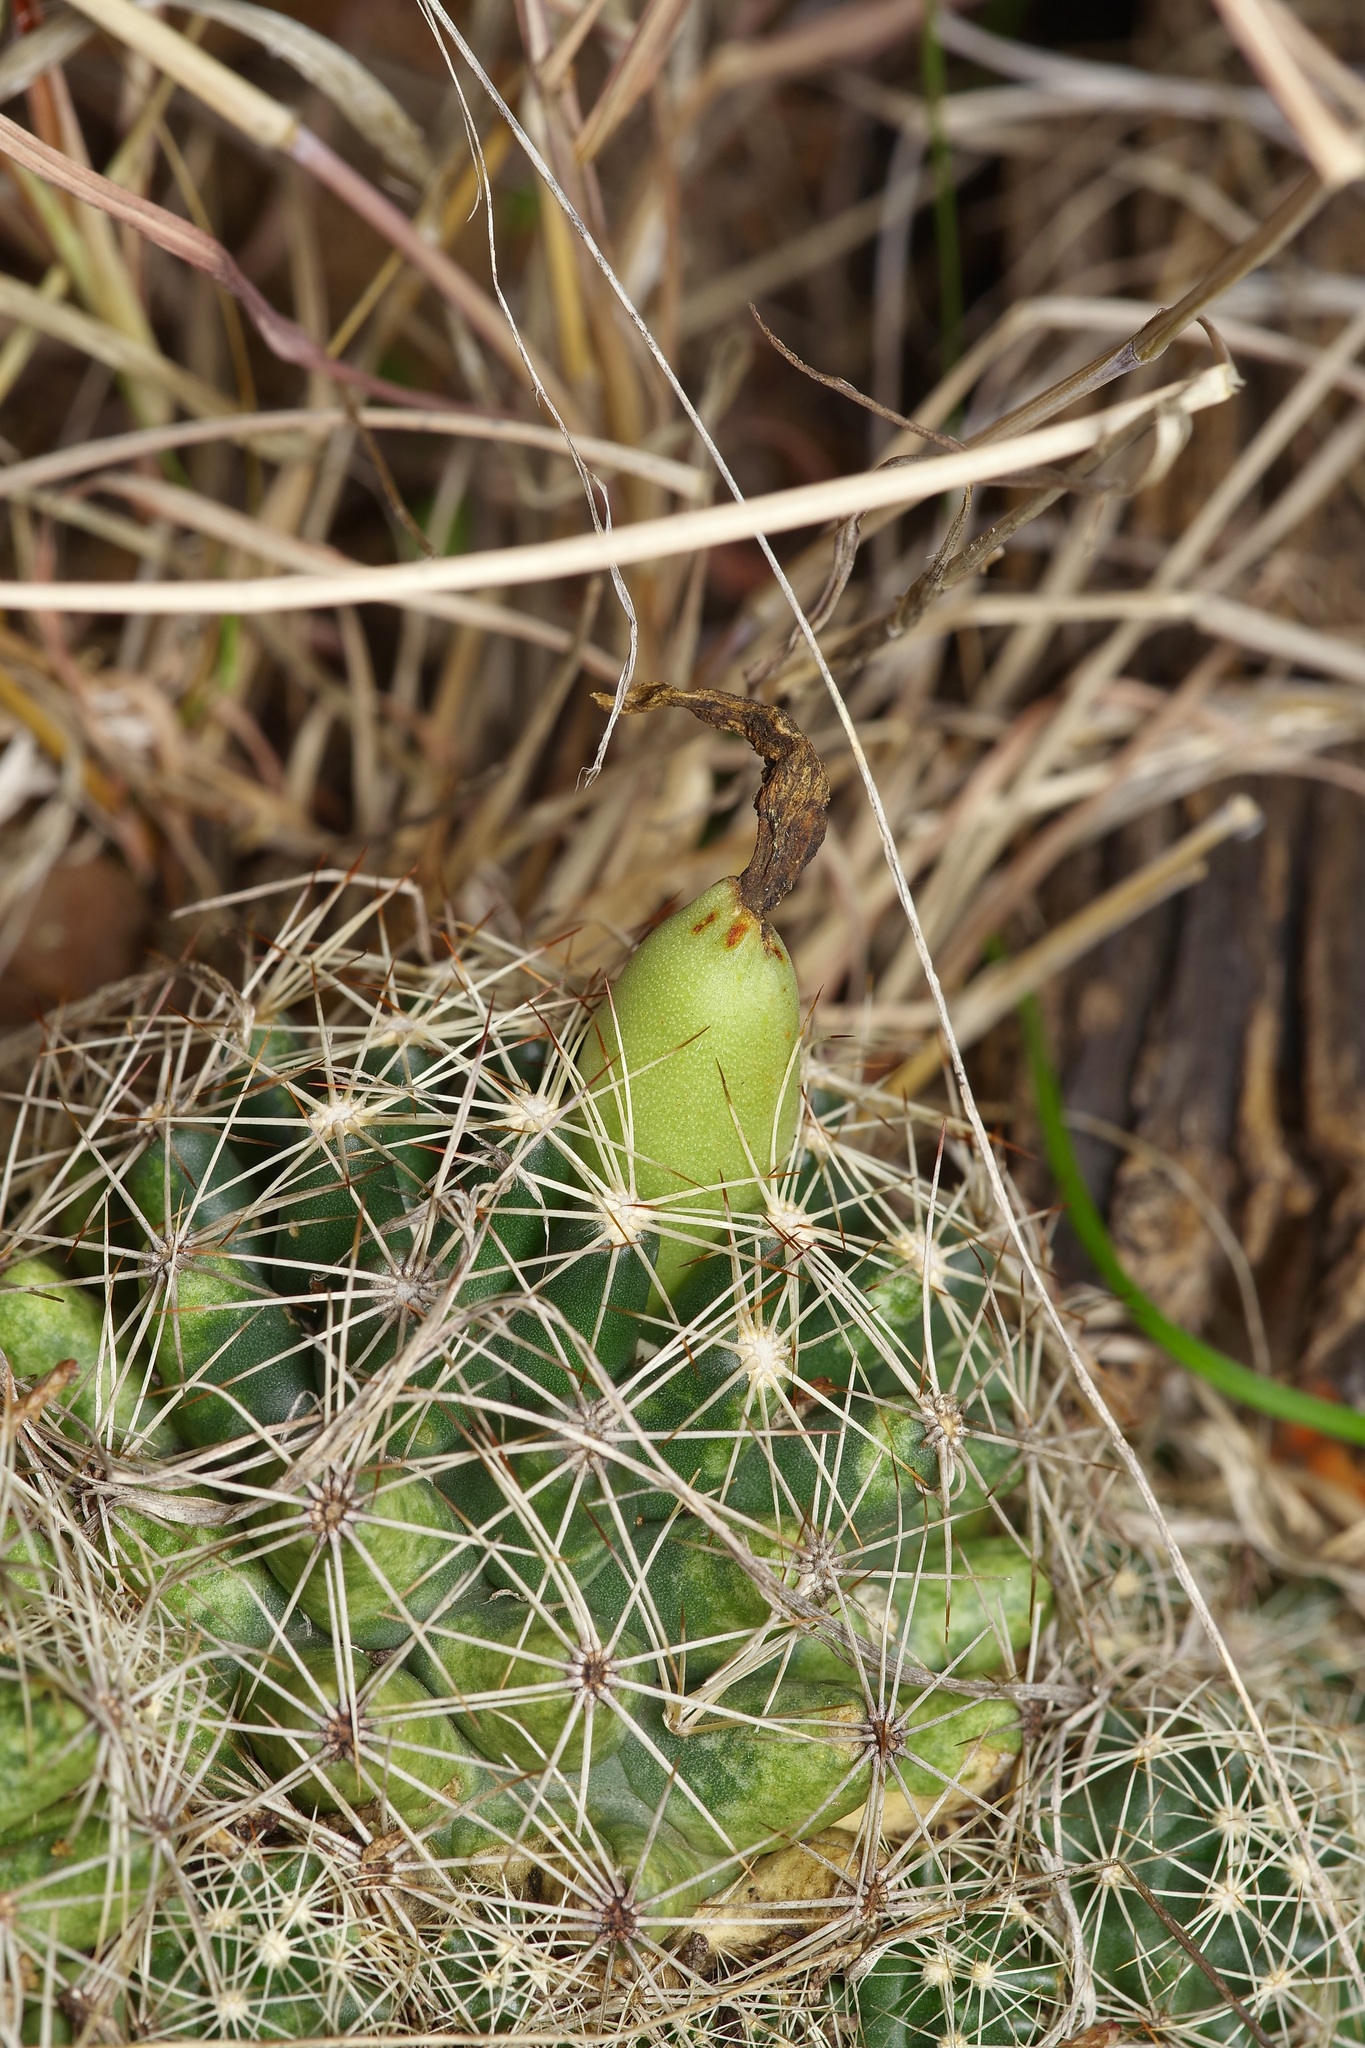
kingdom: Plantae
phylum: Tracheophyta
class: Magnoliopsida
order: Caryophyllales
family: Cactaceae
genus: Coryphantha
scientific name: Coryphantha sulcata
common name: Finger cactus
